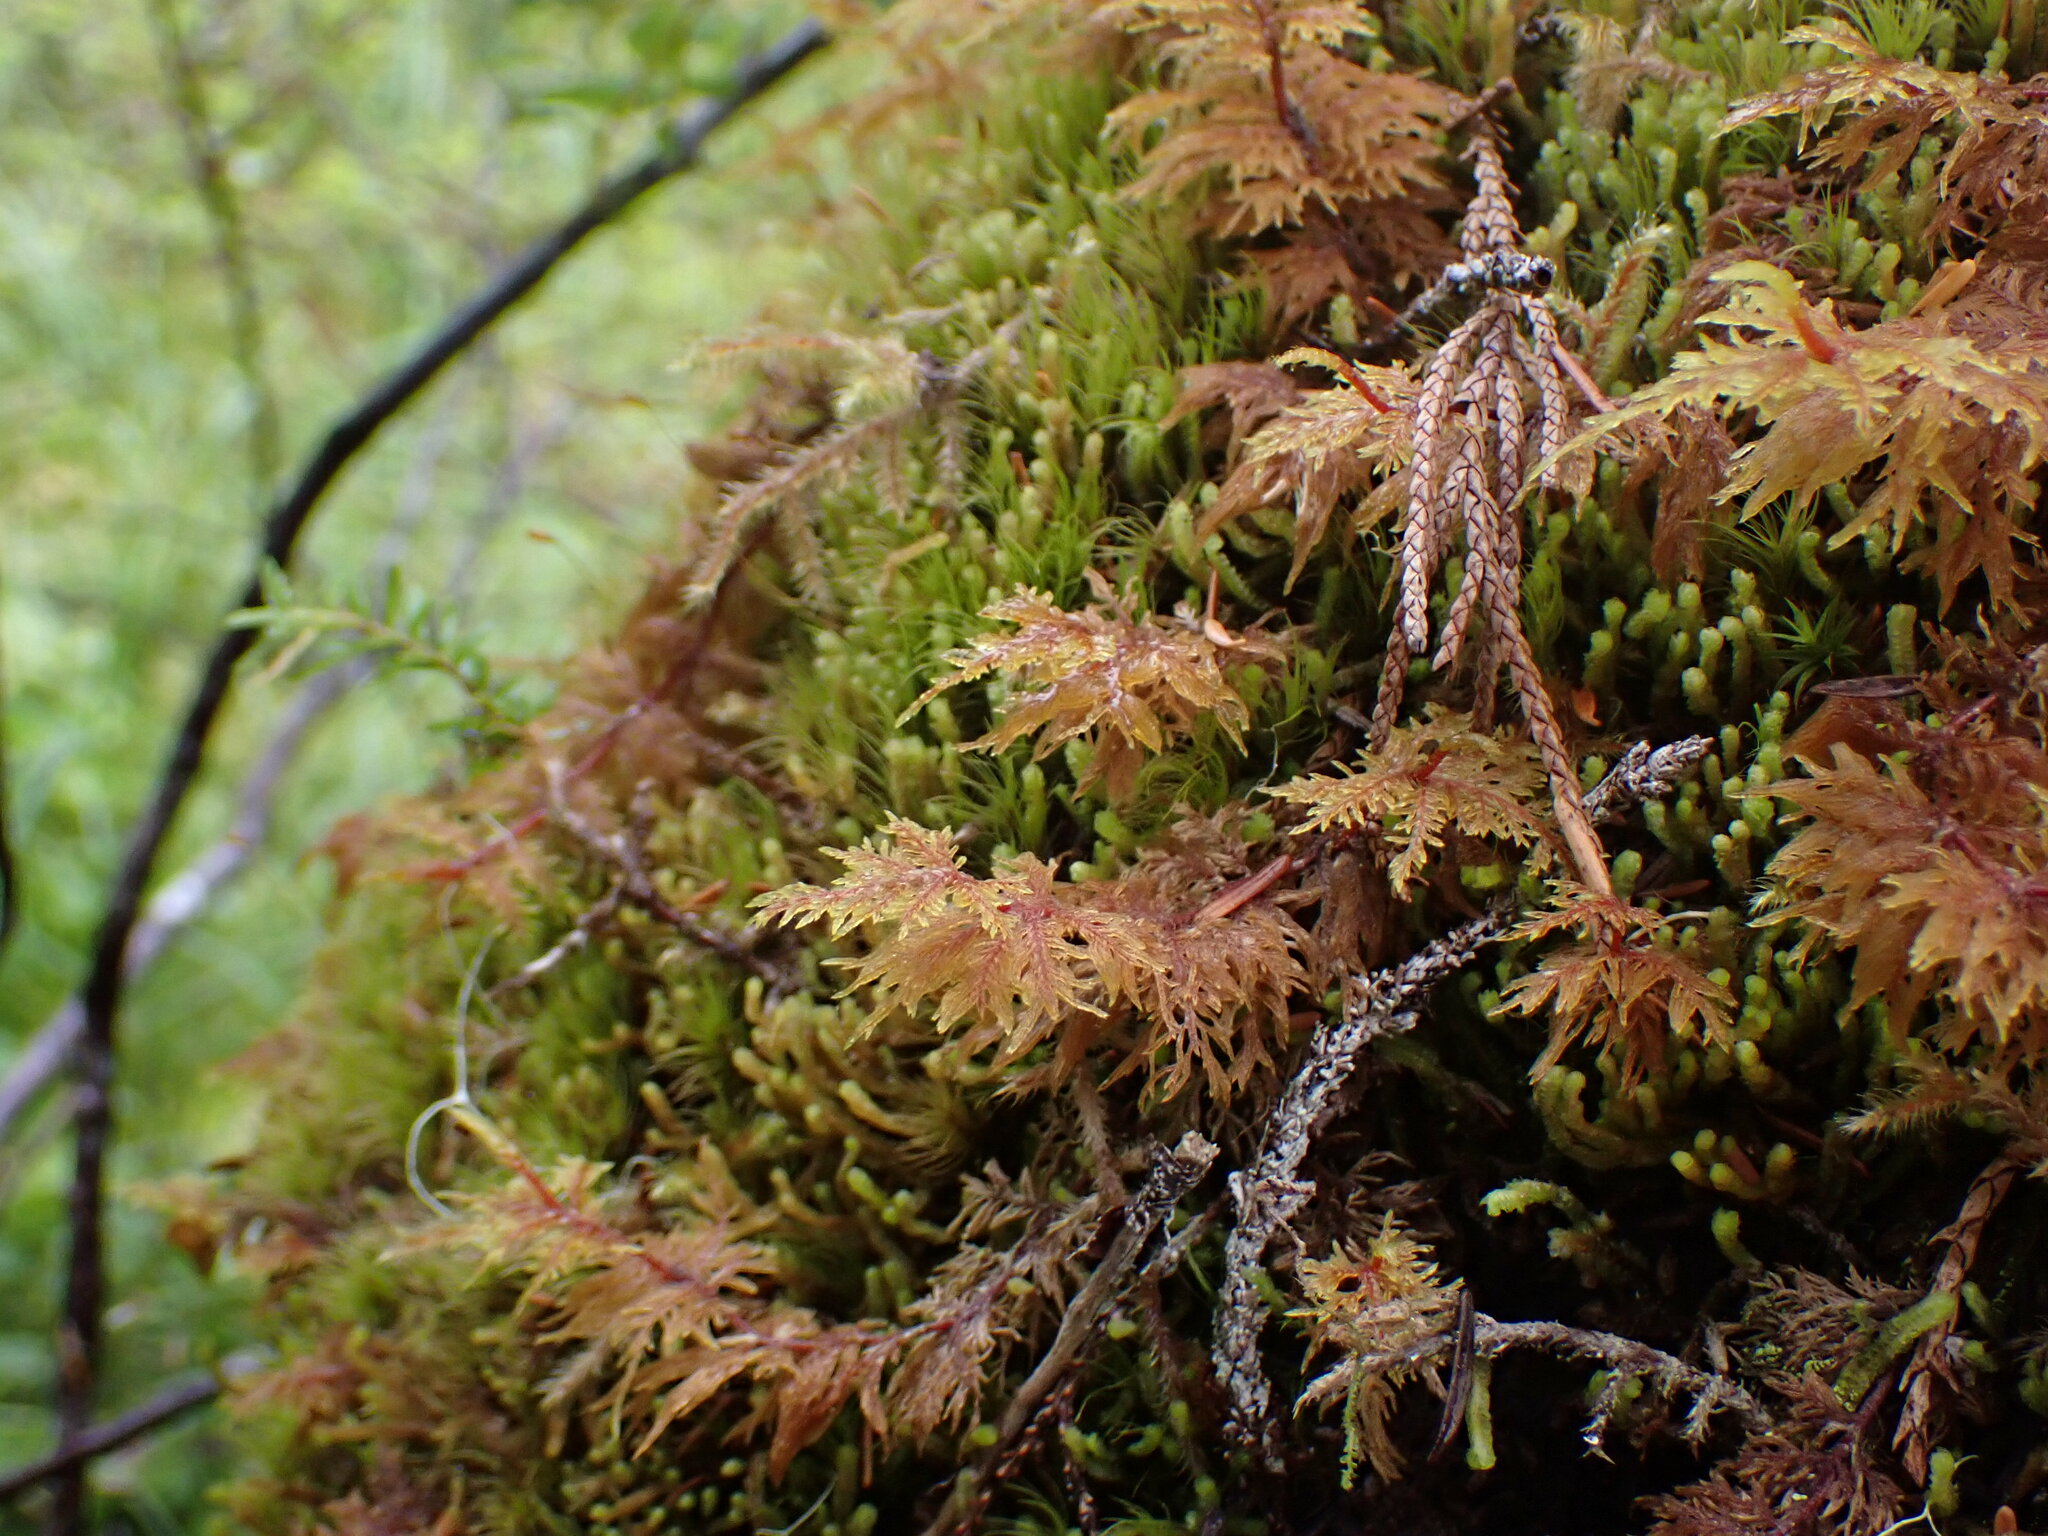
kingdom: Plantae
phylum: Bryophyta
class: Bryopsida
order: Hypnales
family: Hylocomiaceae
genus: Hylocomium
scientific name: Hylocomium splendens
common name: Stairstep moss
